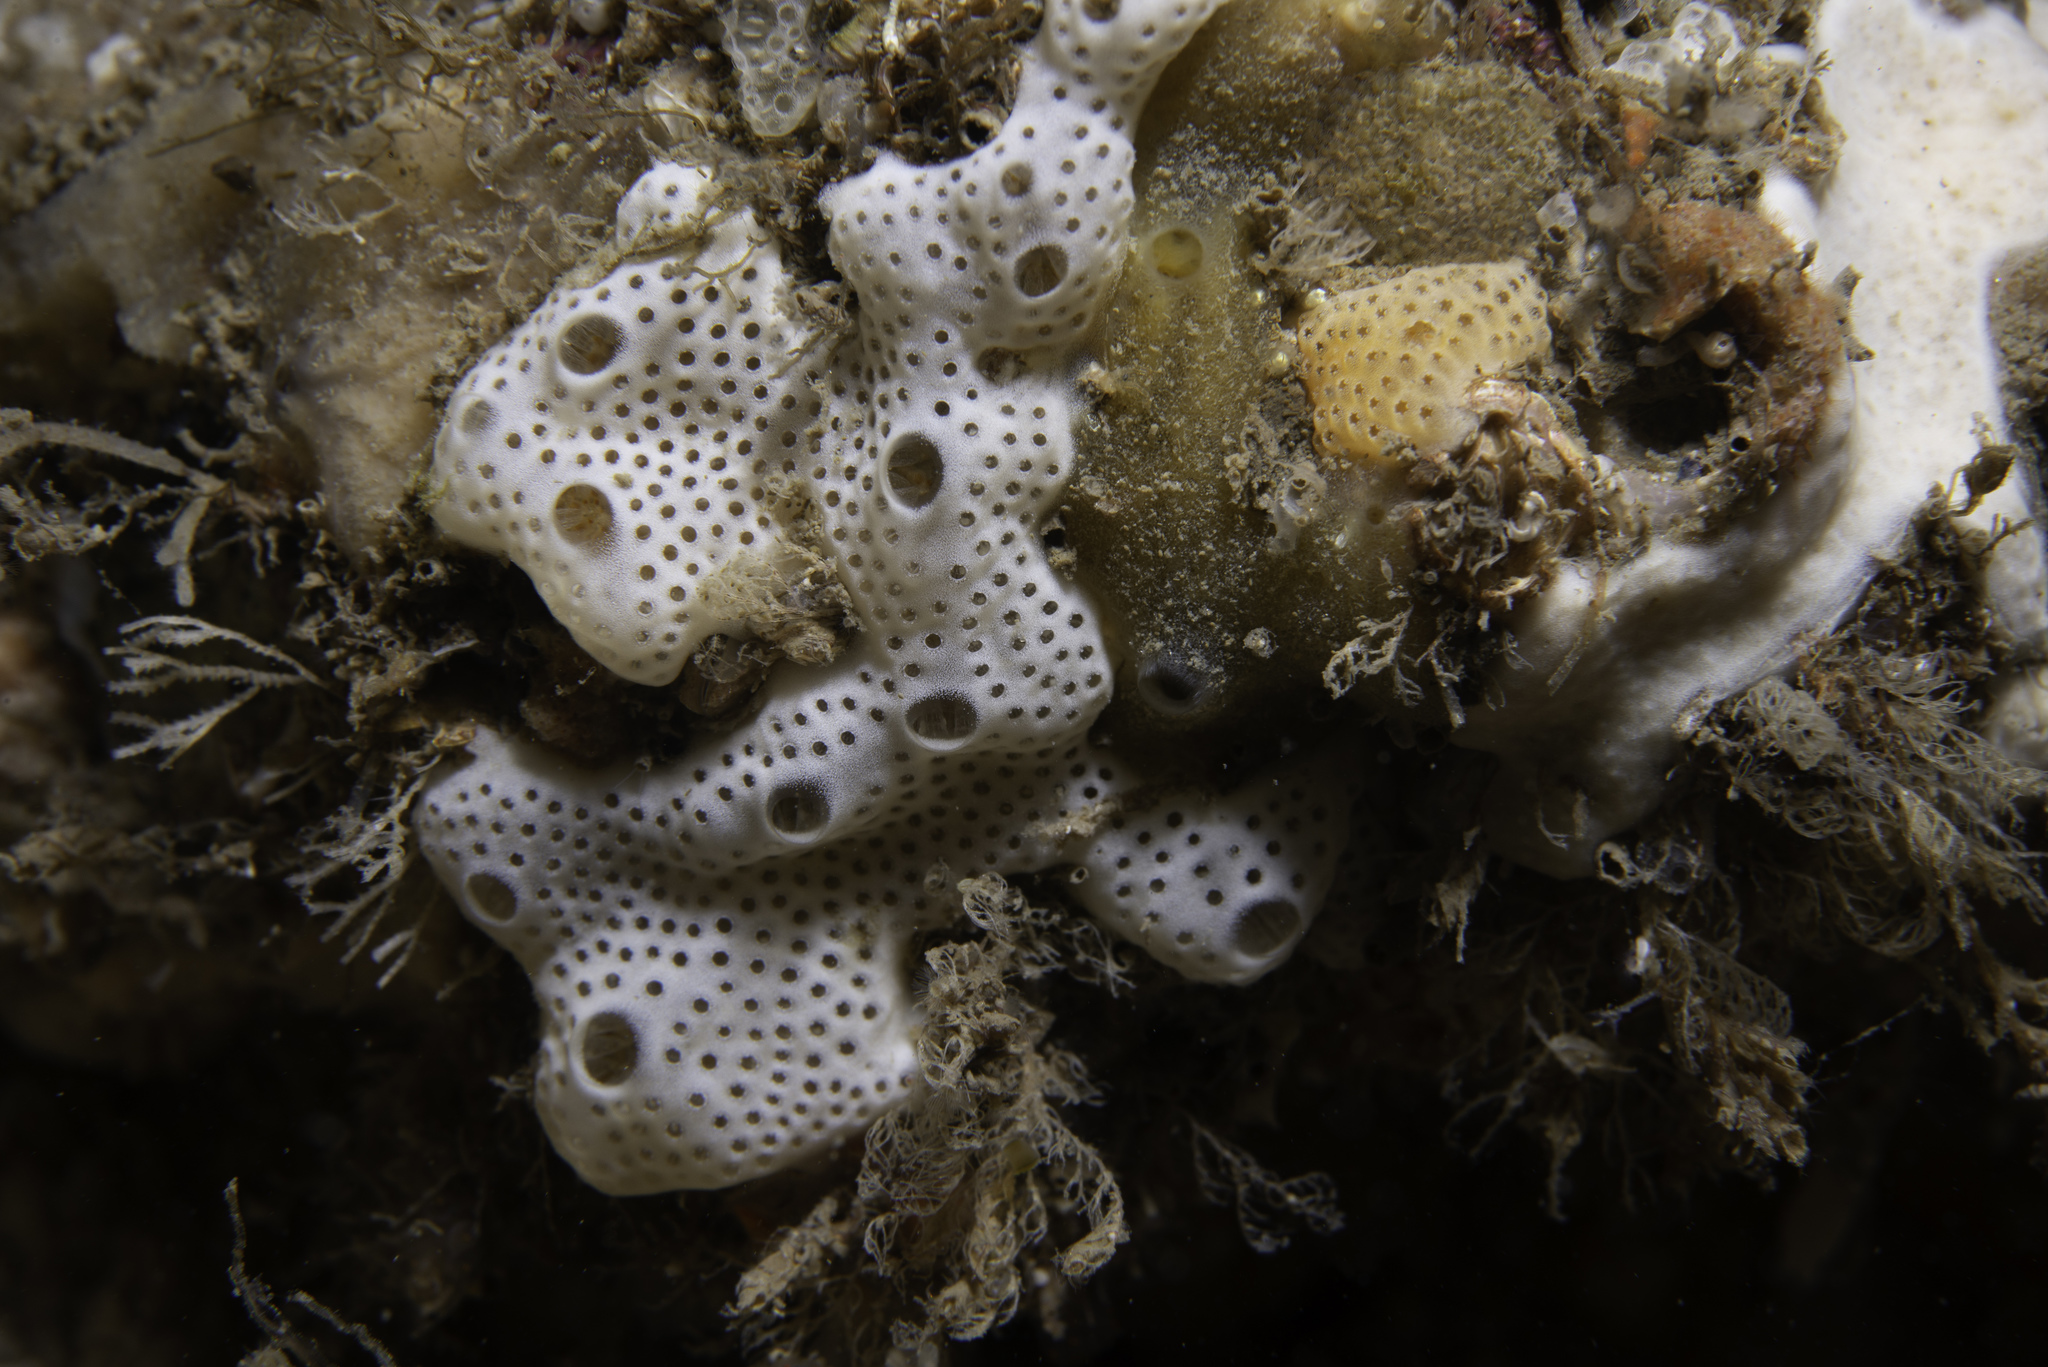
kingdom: Animalia
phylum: Chordata
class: Ascidiacea
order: Aplousobranchia
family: Didemnidae
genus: Lissoclinum
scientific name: Lissoclinum perforatum
